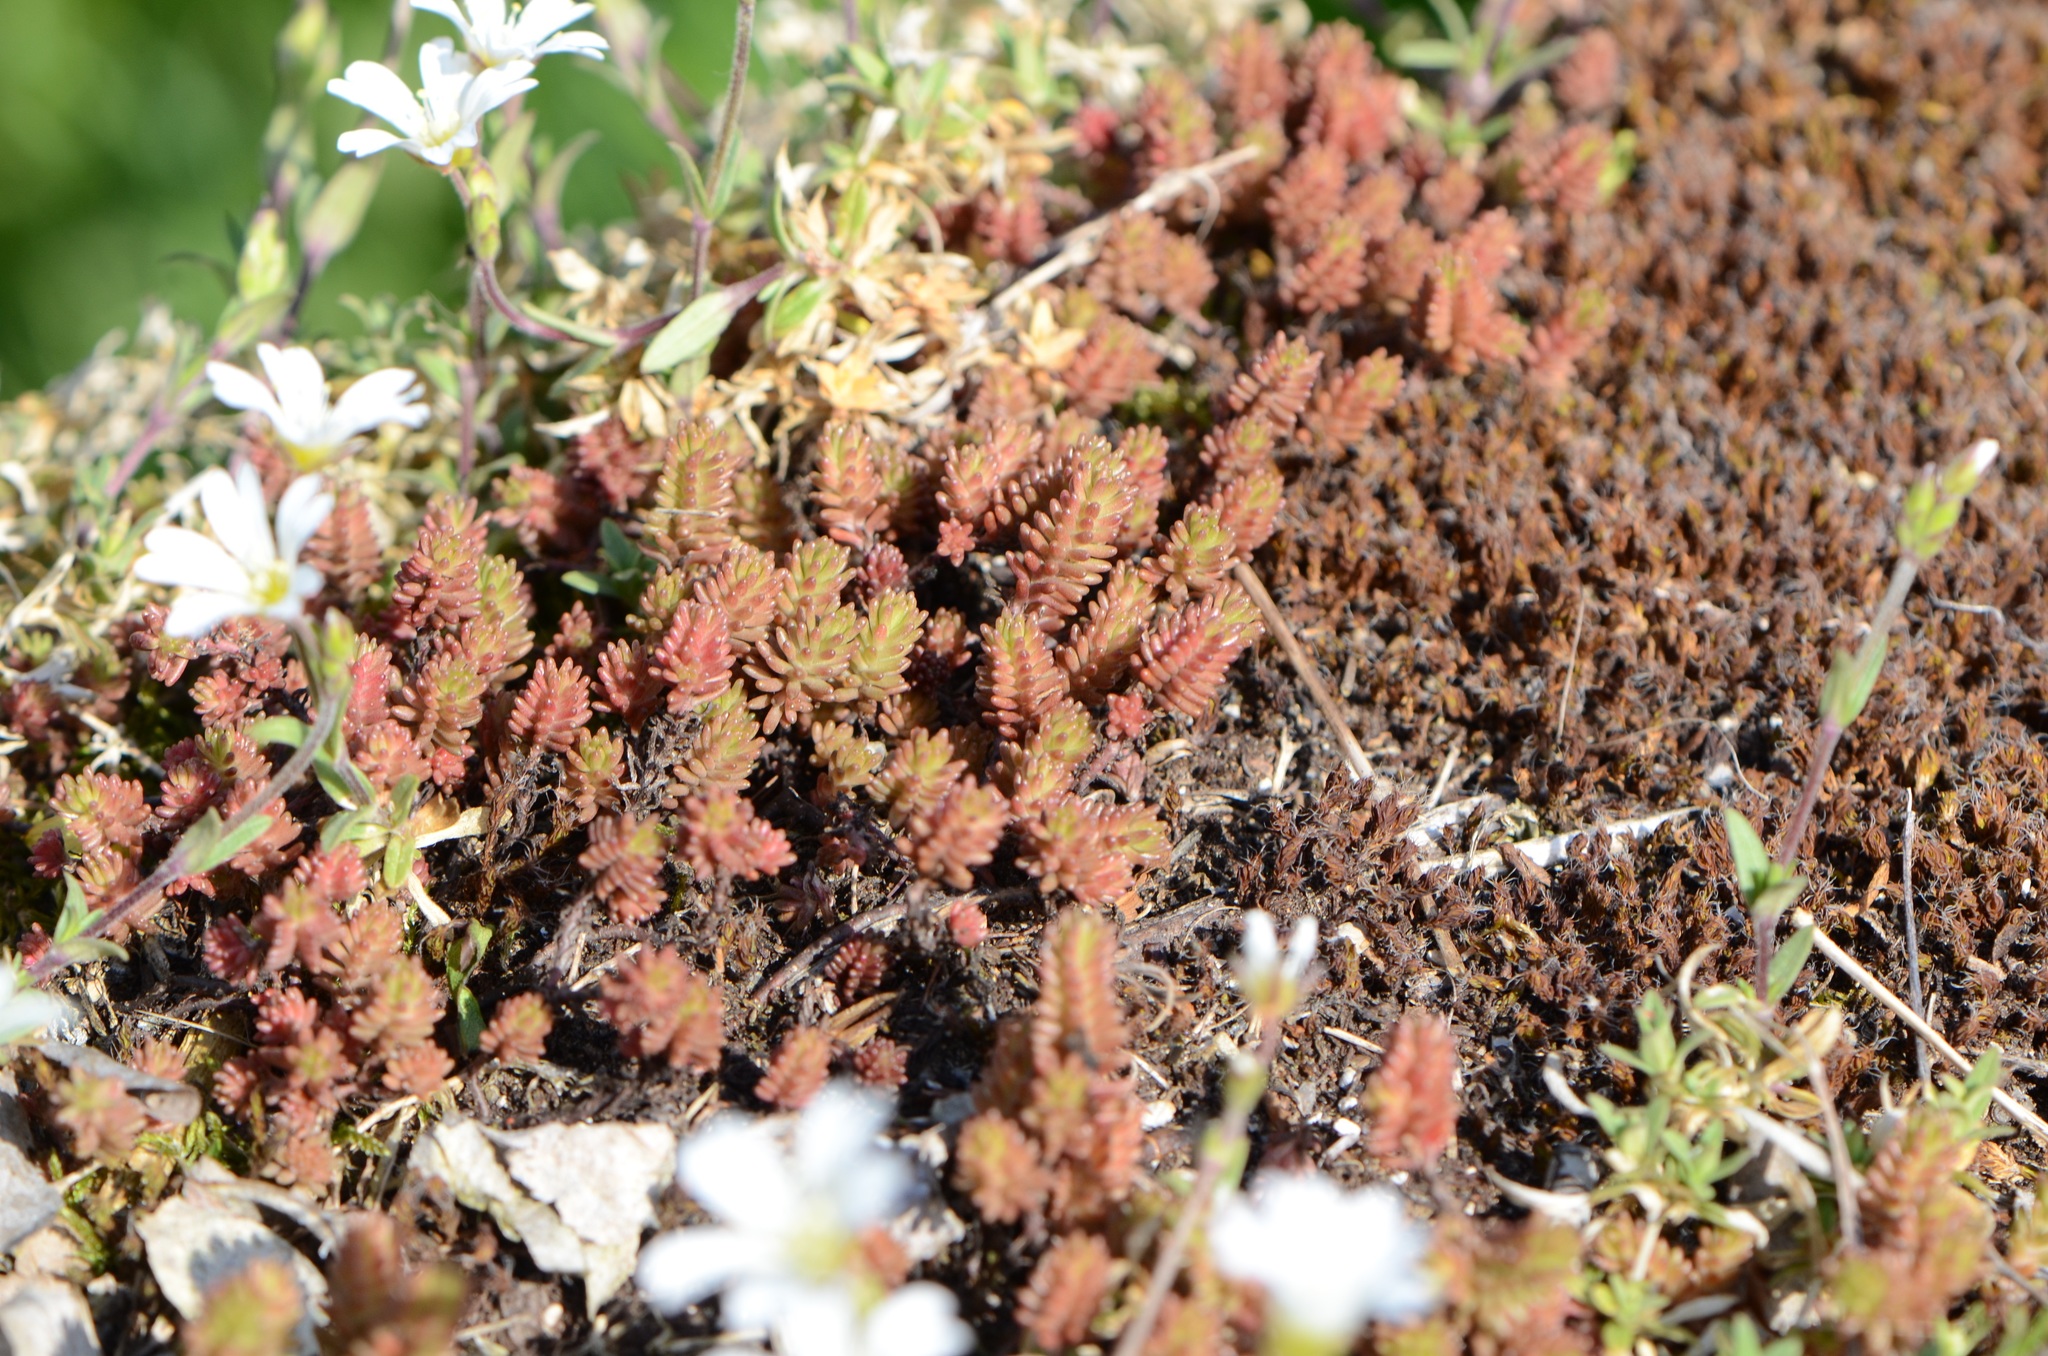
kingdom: Plantae
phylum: Tracheophyta
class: Magnoliopsida
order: Saxifragales
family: Crassulaceae
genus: Sedum
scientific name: Sedum sexangulare
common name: Tasteless stonecrop
